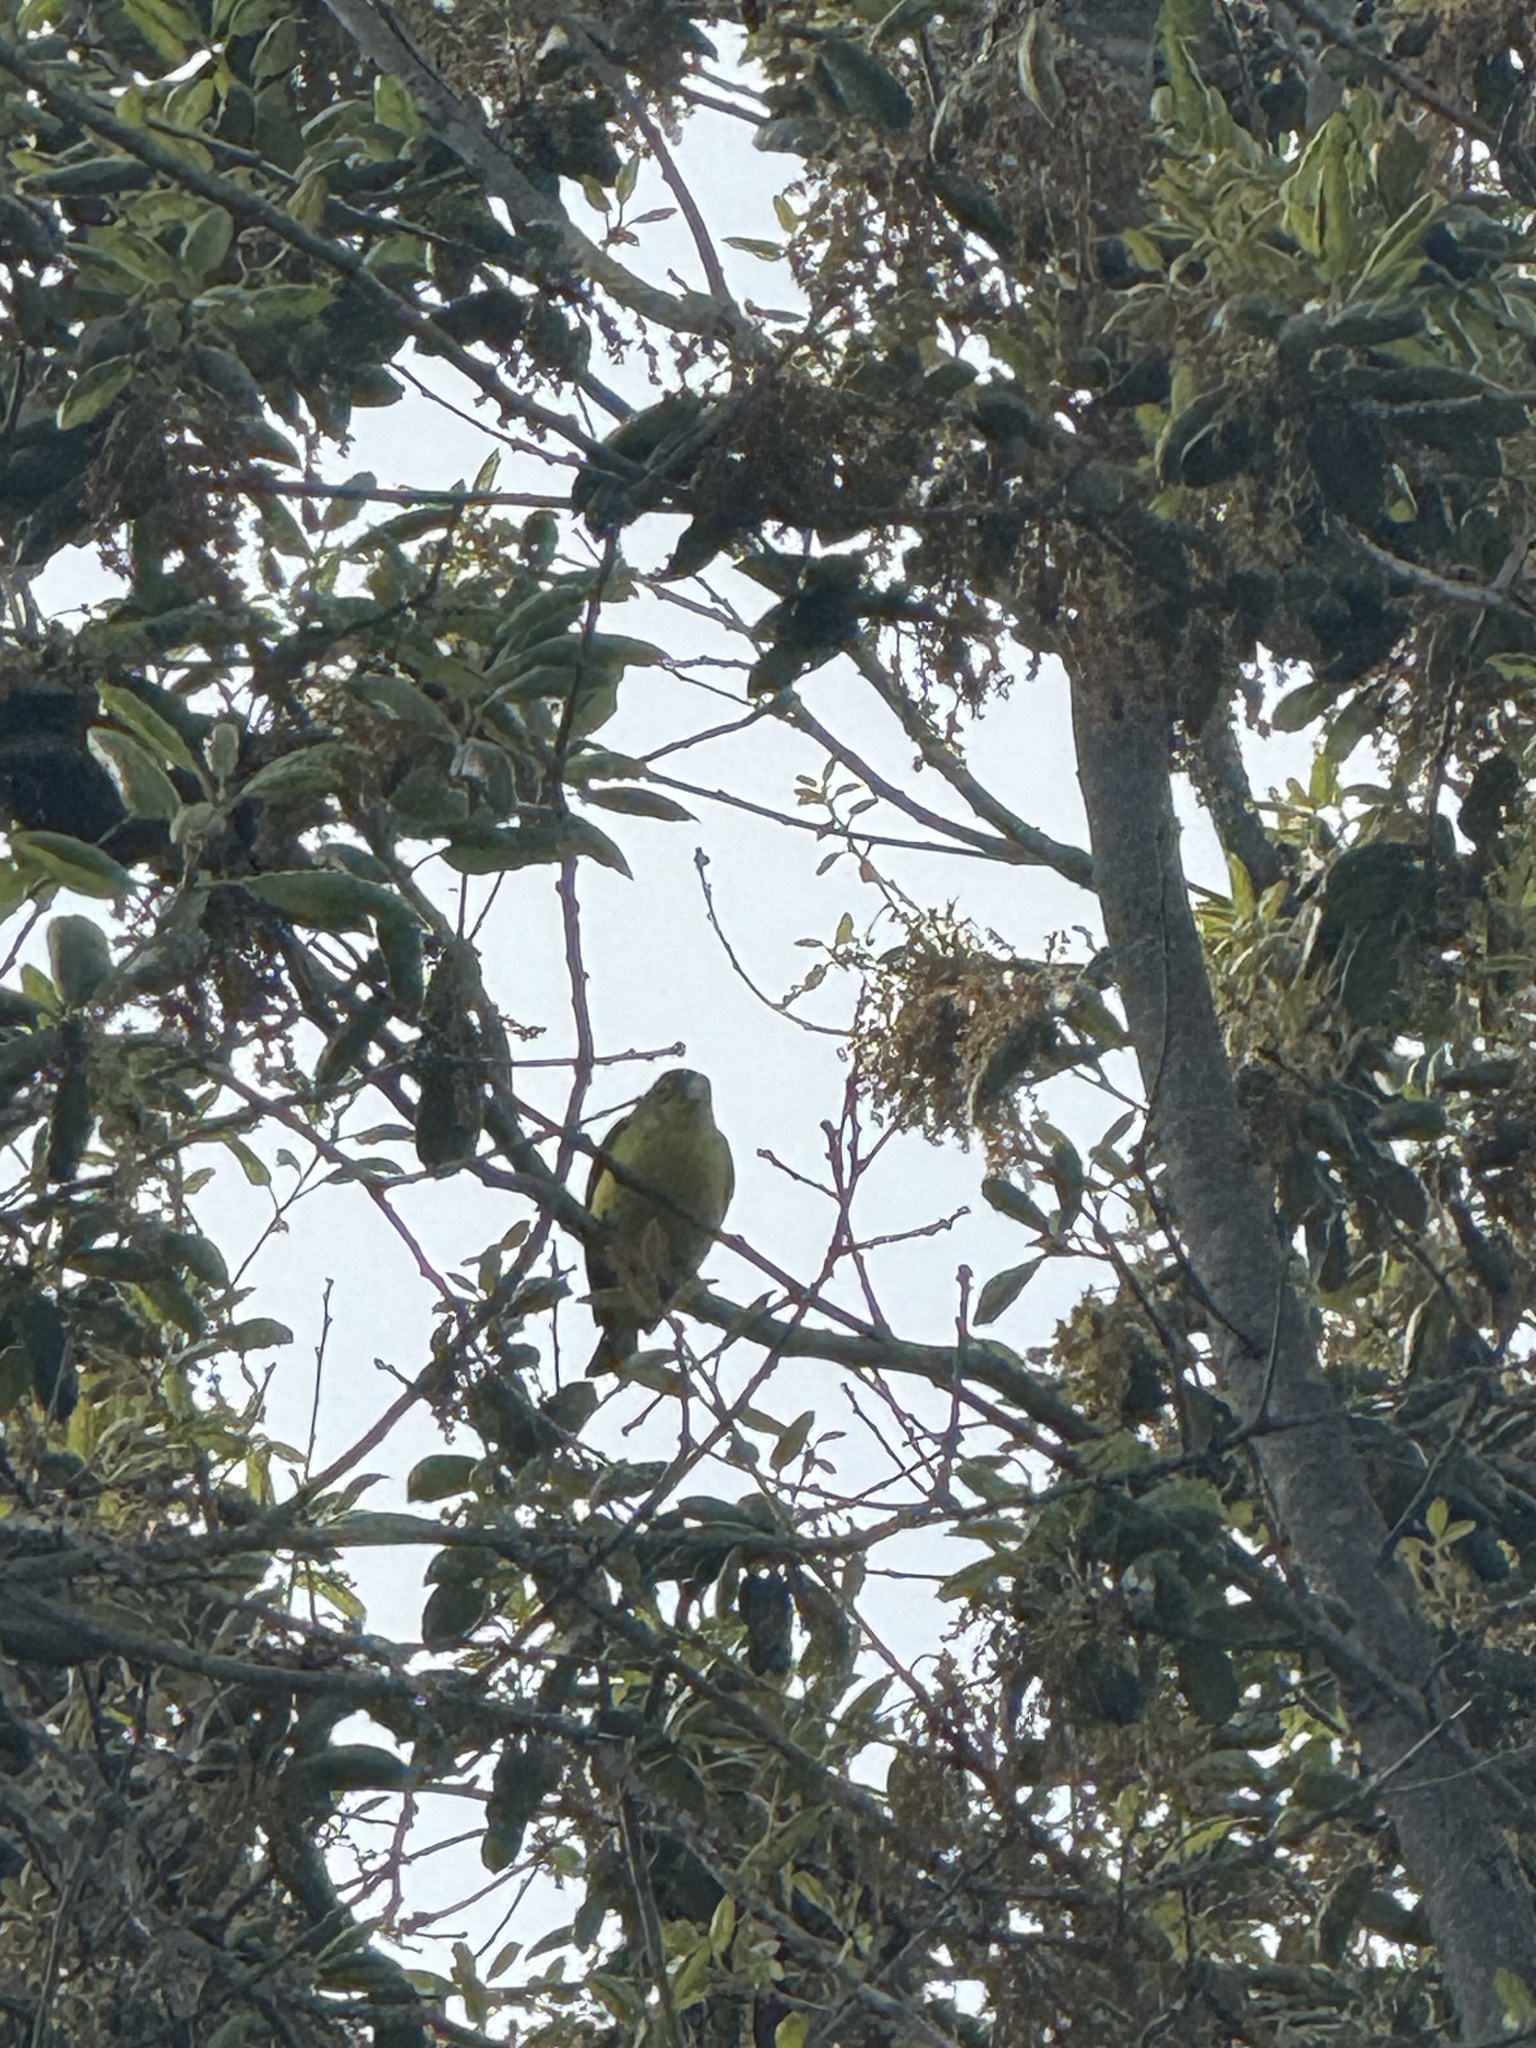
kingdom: Animalia
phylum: Chordata
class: Aves
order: Passeriformes
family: Fringillidae
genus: Spinus
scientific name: Spinus psaltria
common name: Lesser goldfinch
